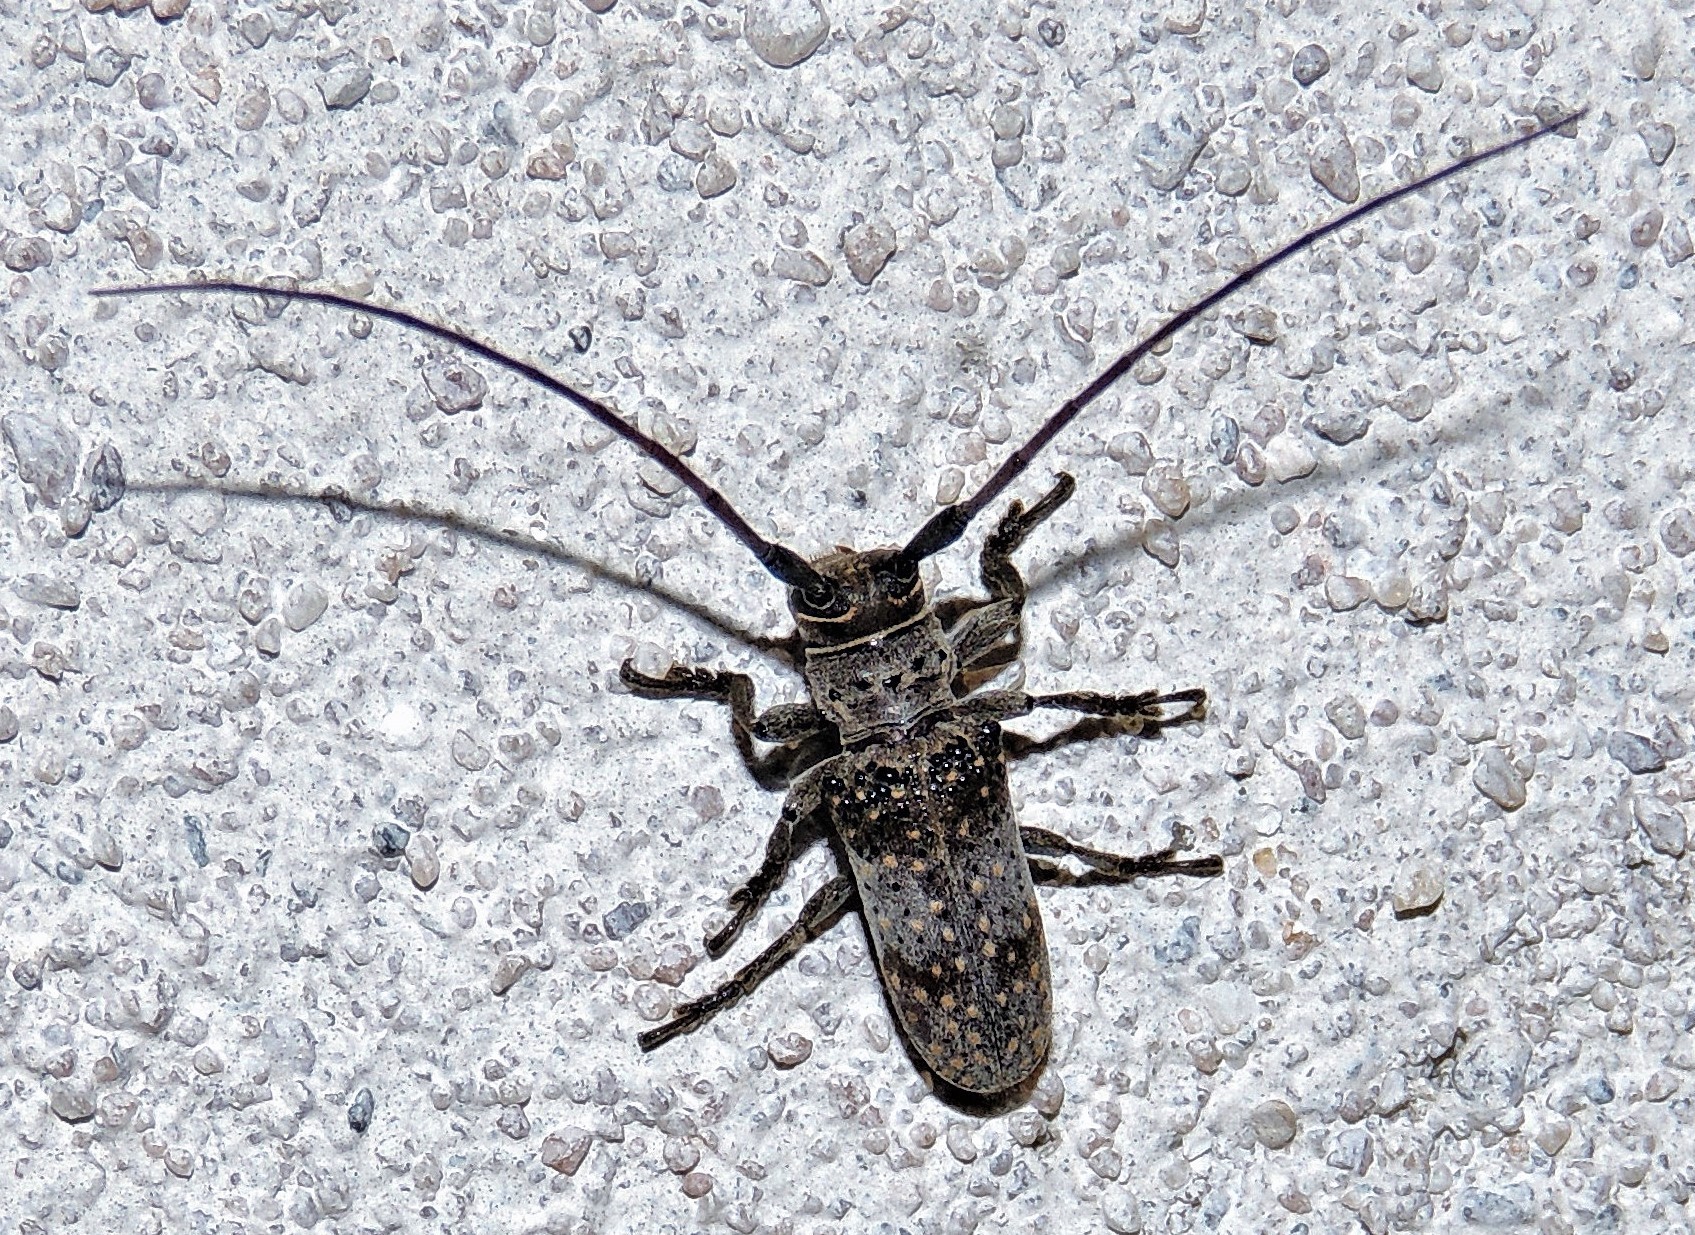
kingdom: Animalia
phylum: Arthropoda
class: Insecta
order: Coleoptera
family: Cerambycidae
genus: Oncideres
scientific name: Oncideres polychroma
